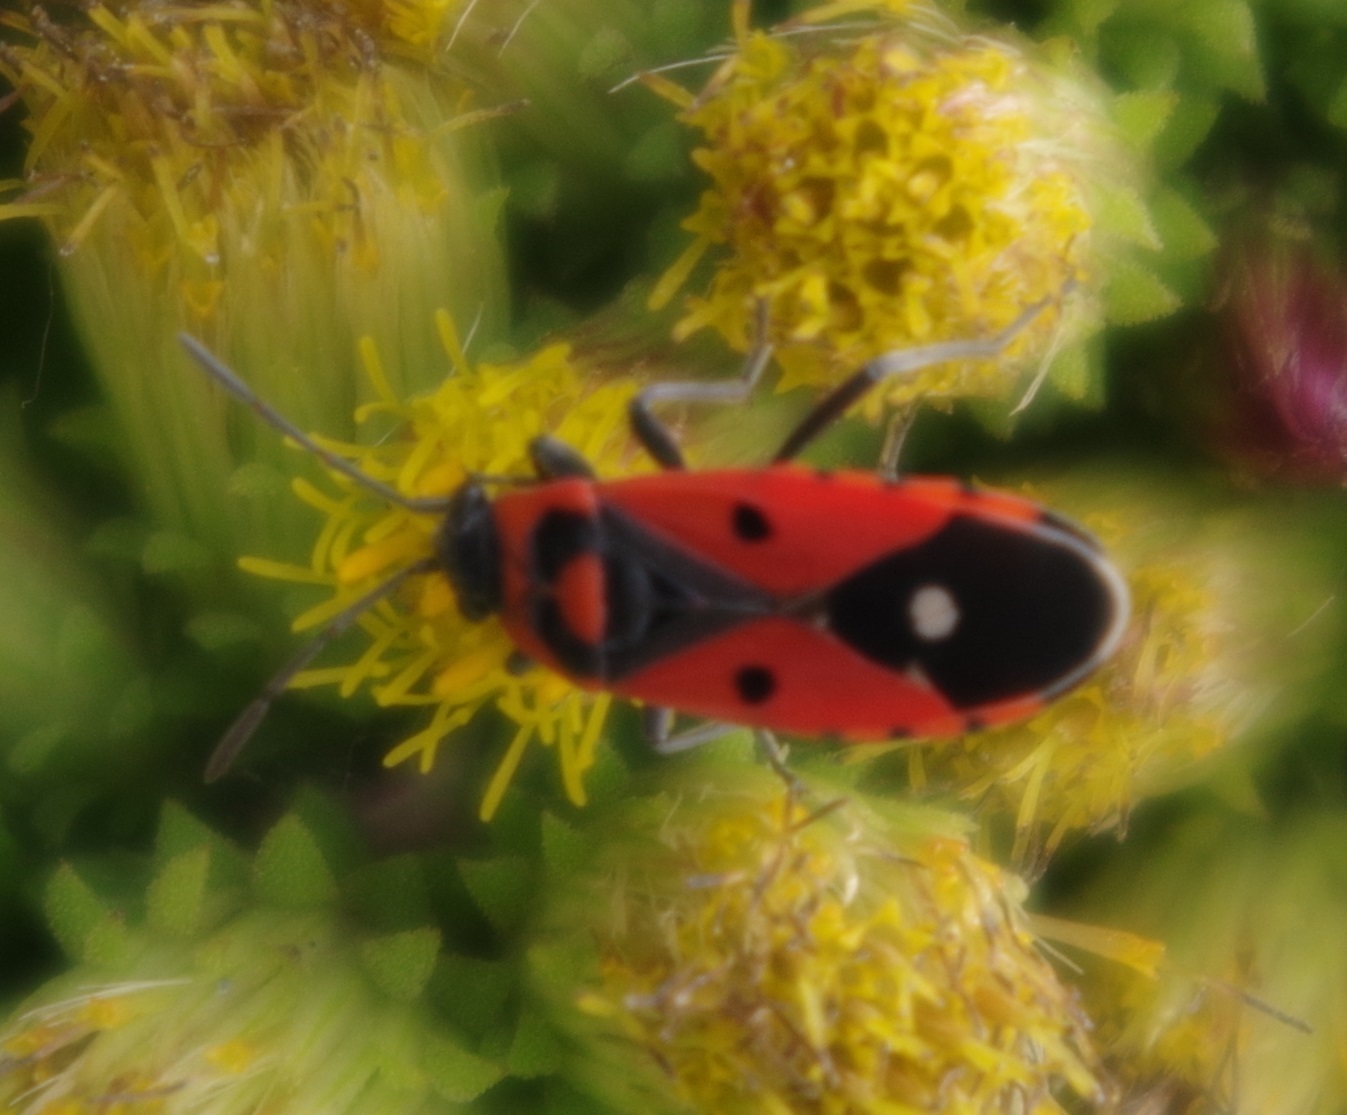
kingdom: Animalia
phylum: Arthropoda
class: Insecta
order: Hemiptera
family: Lygaeidae
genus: Melanocoryphus
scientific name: Melanocoryphus albomaculatus
